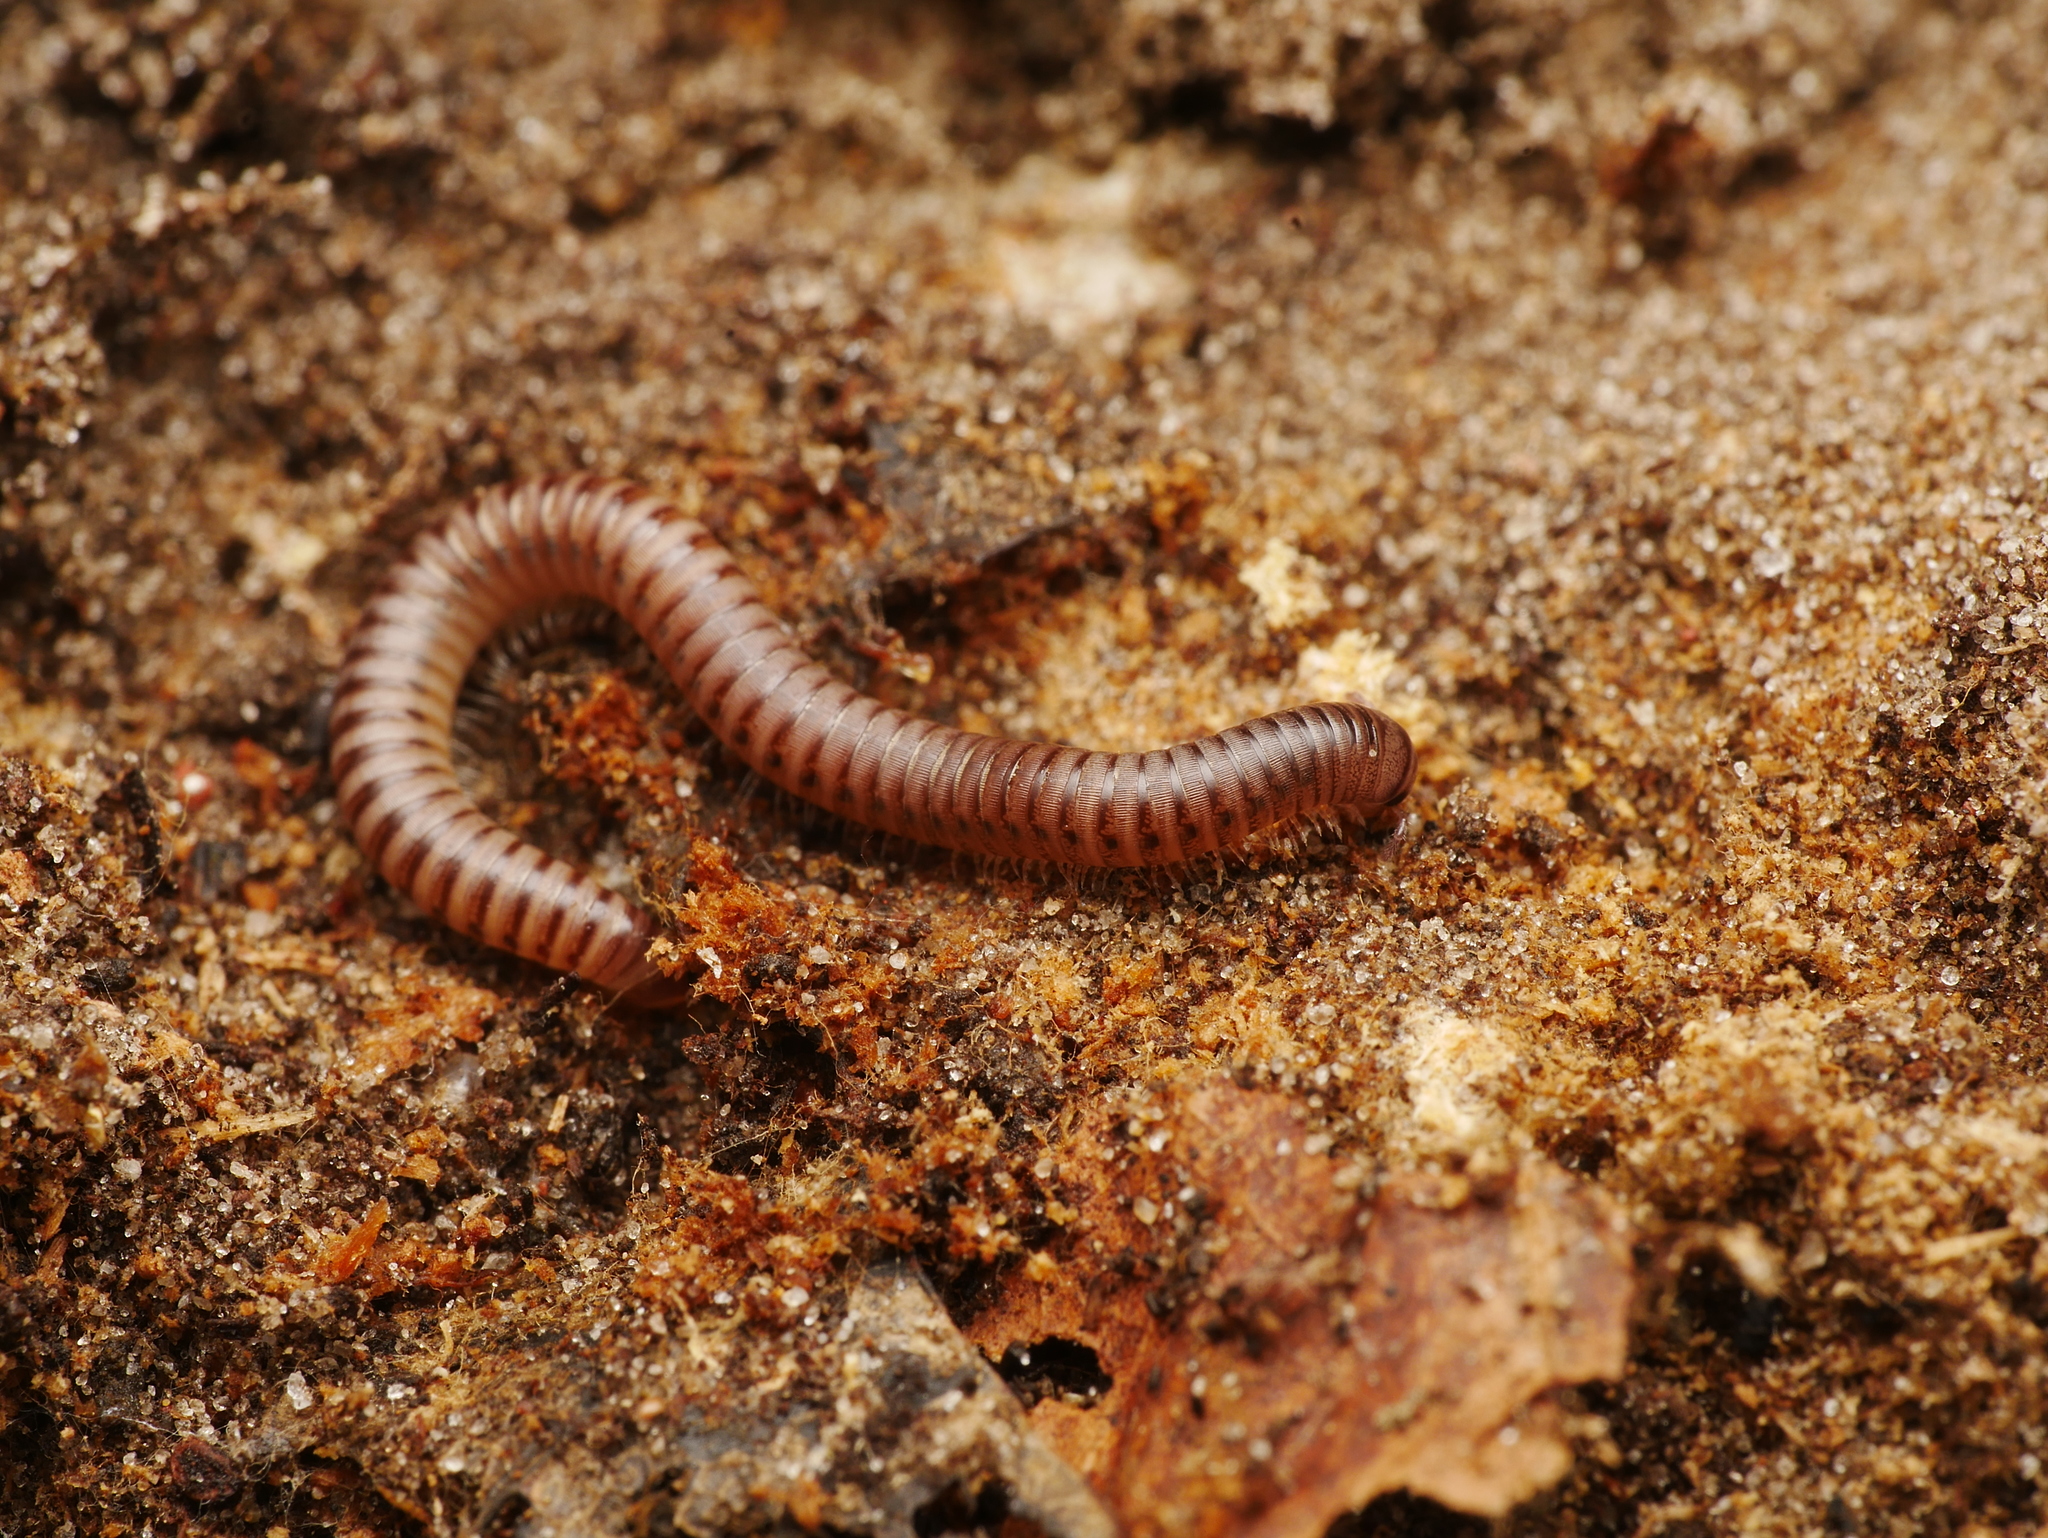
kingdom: Animalia
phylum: Arthropoda
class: Diplopoda
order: Julida
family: Julidae
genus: Cylindroiulus
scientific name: Cylindroiulus punctatus
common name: Blunt-tailed millipede
